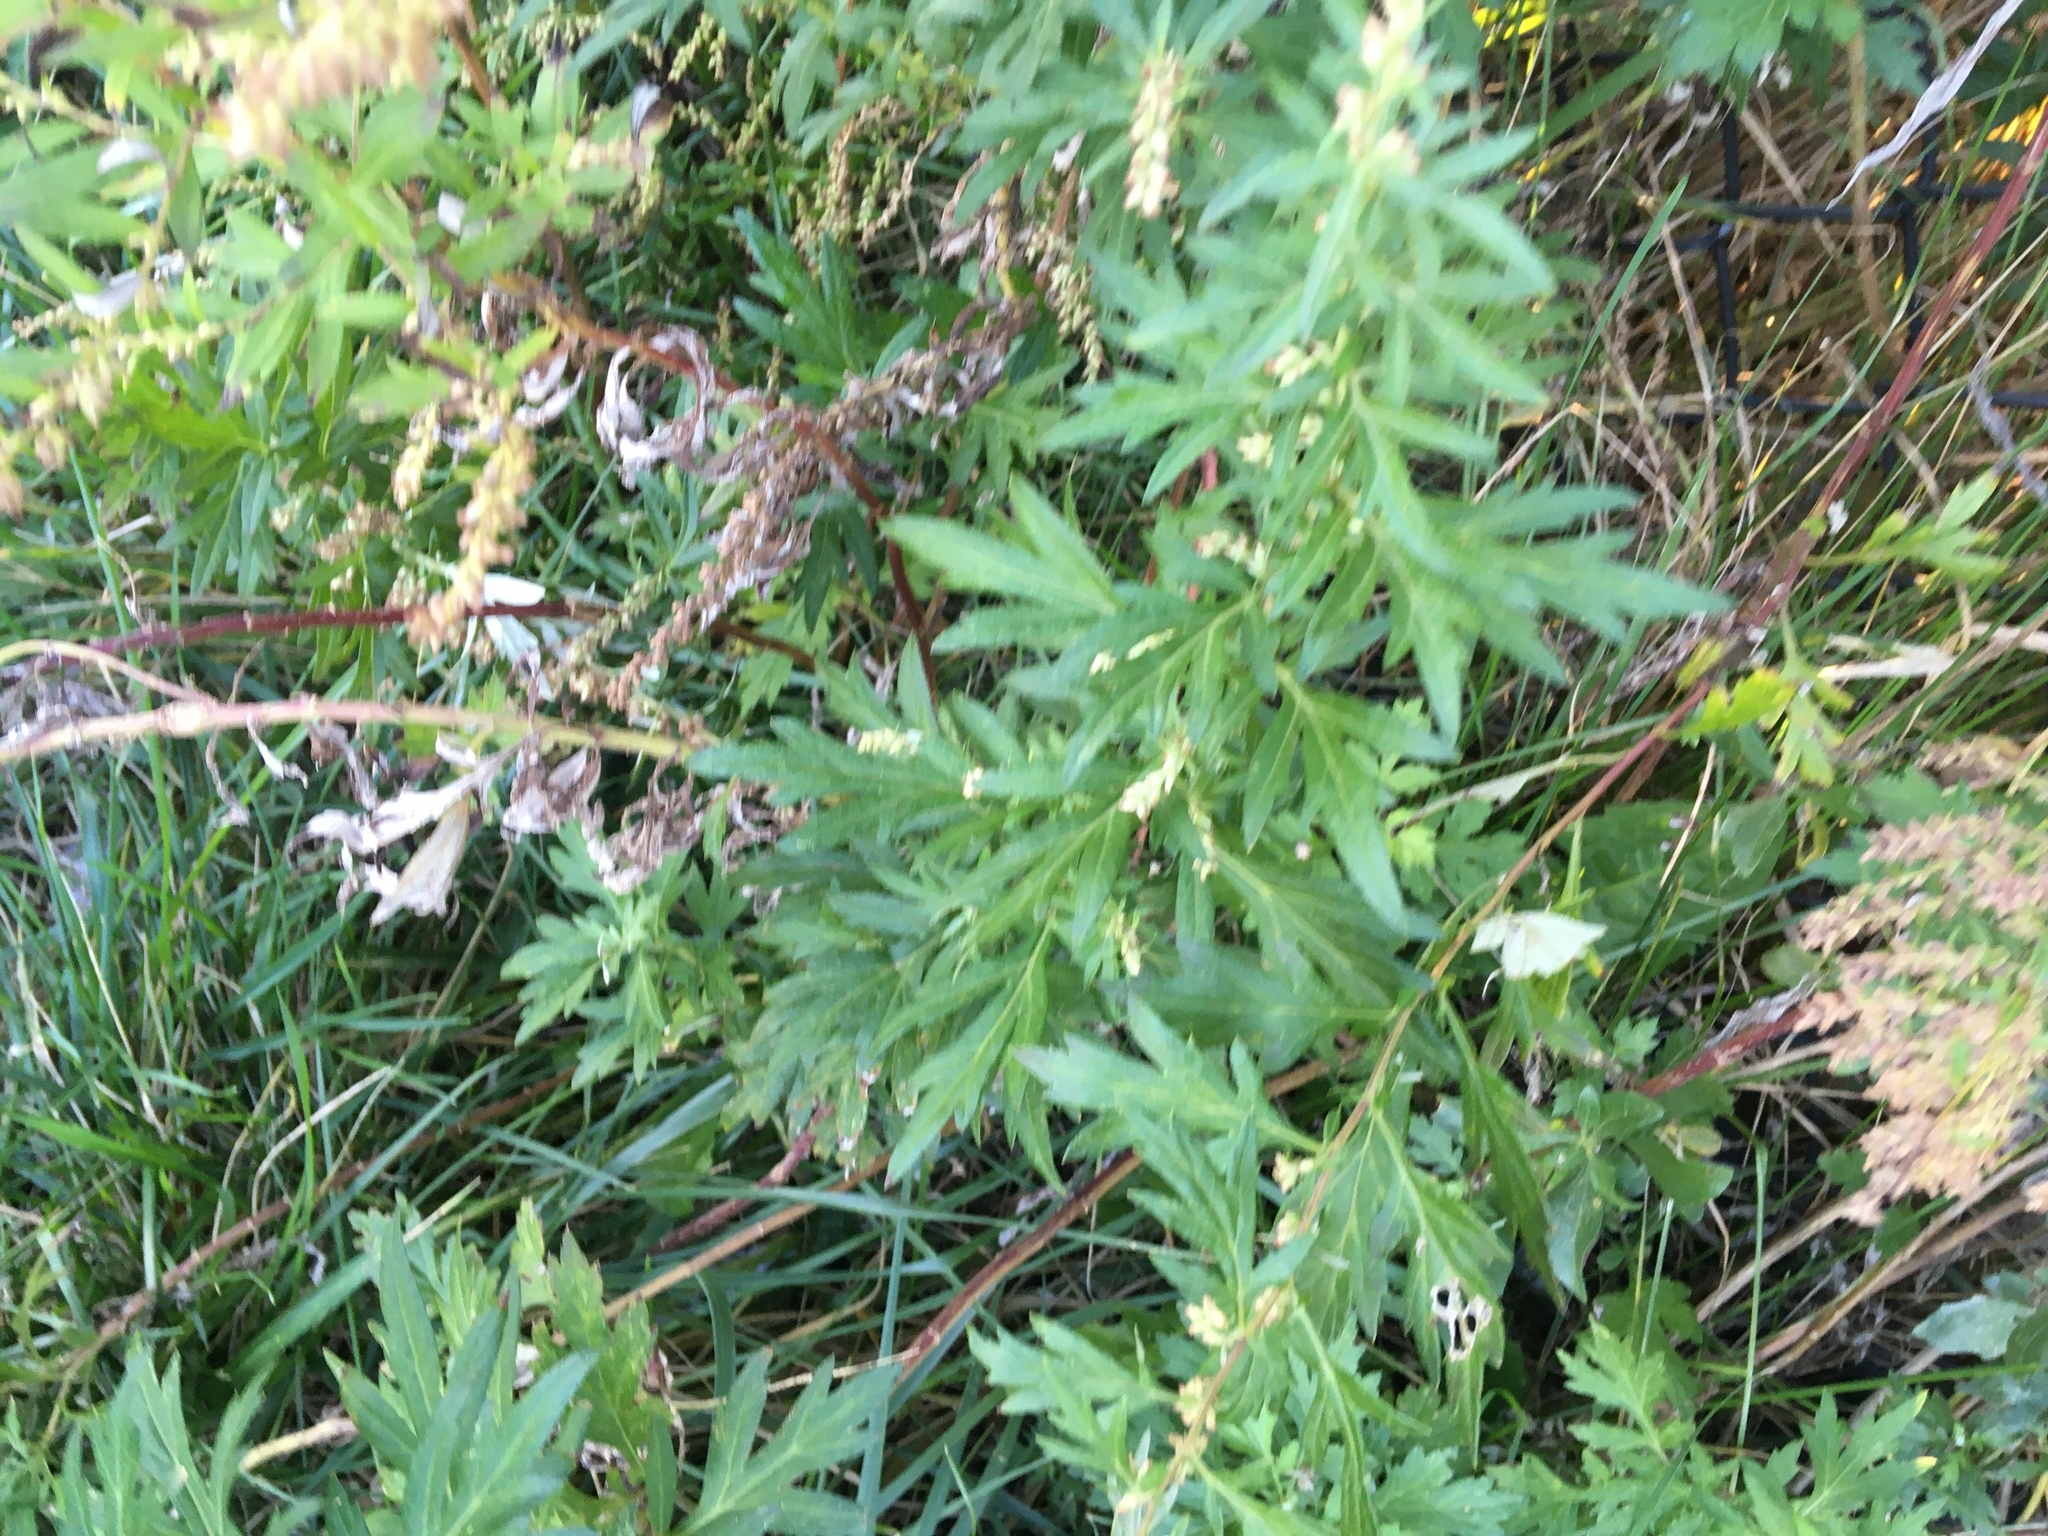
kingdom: Plantae
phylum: Tracheophyta
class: Magnoliopsida
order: Asterales
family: Asteraceae
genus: Artemisia
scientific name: Artemisia vulgaris
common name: Mugwort
